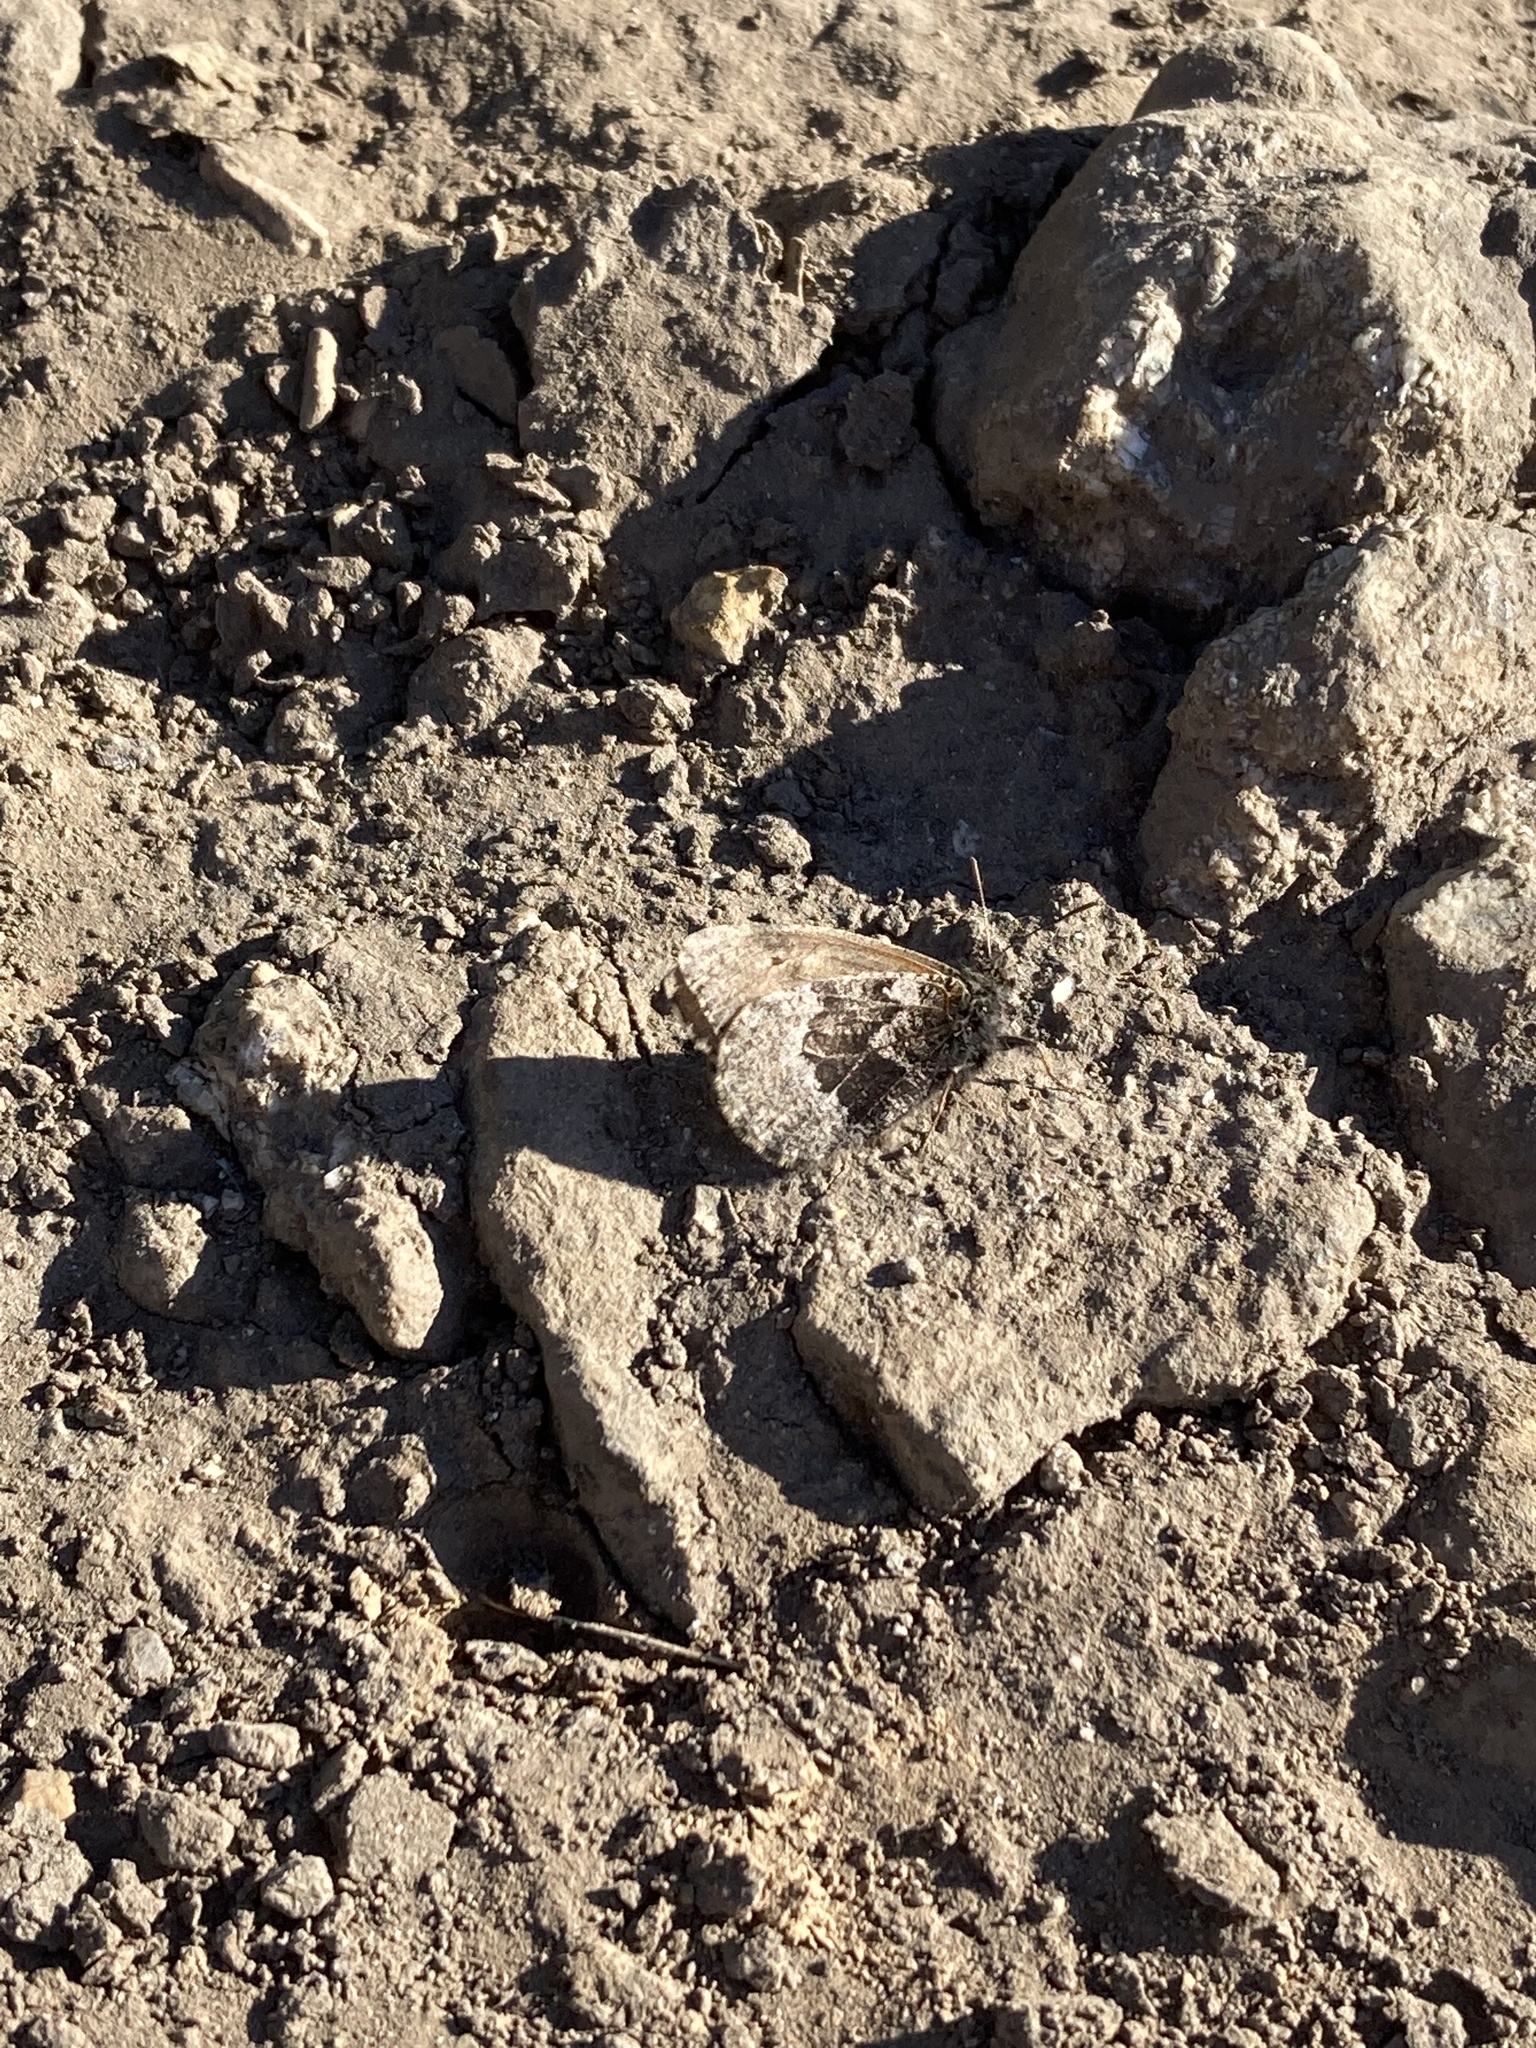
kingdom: Animalia
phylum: Arthropoda
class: Insecta
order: Lepidoptera
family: Nymphalidae
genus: Oeneis
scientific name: Oeneis bore
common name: Arctic grayling
